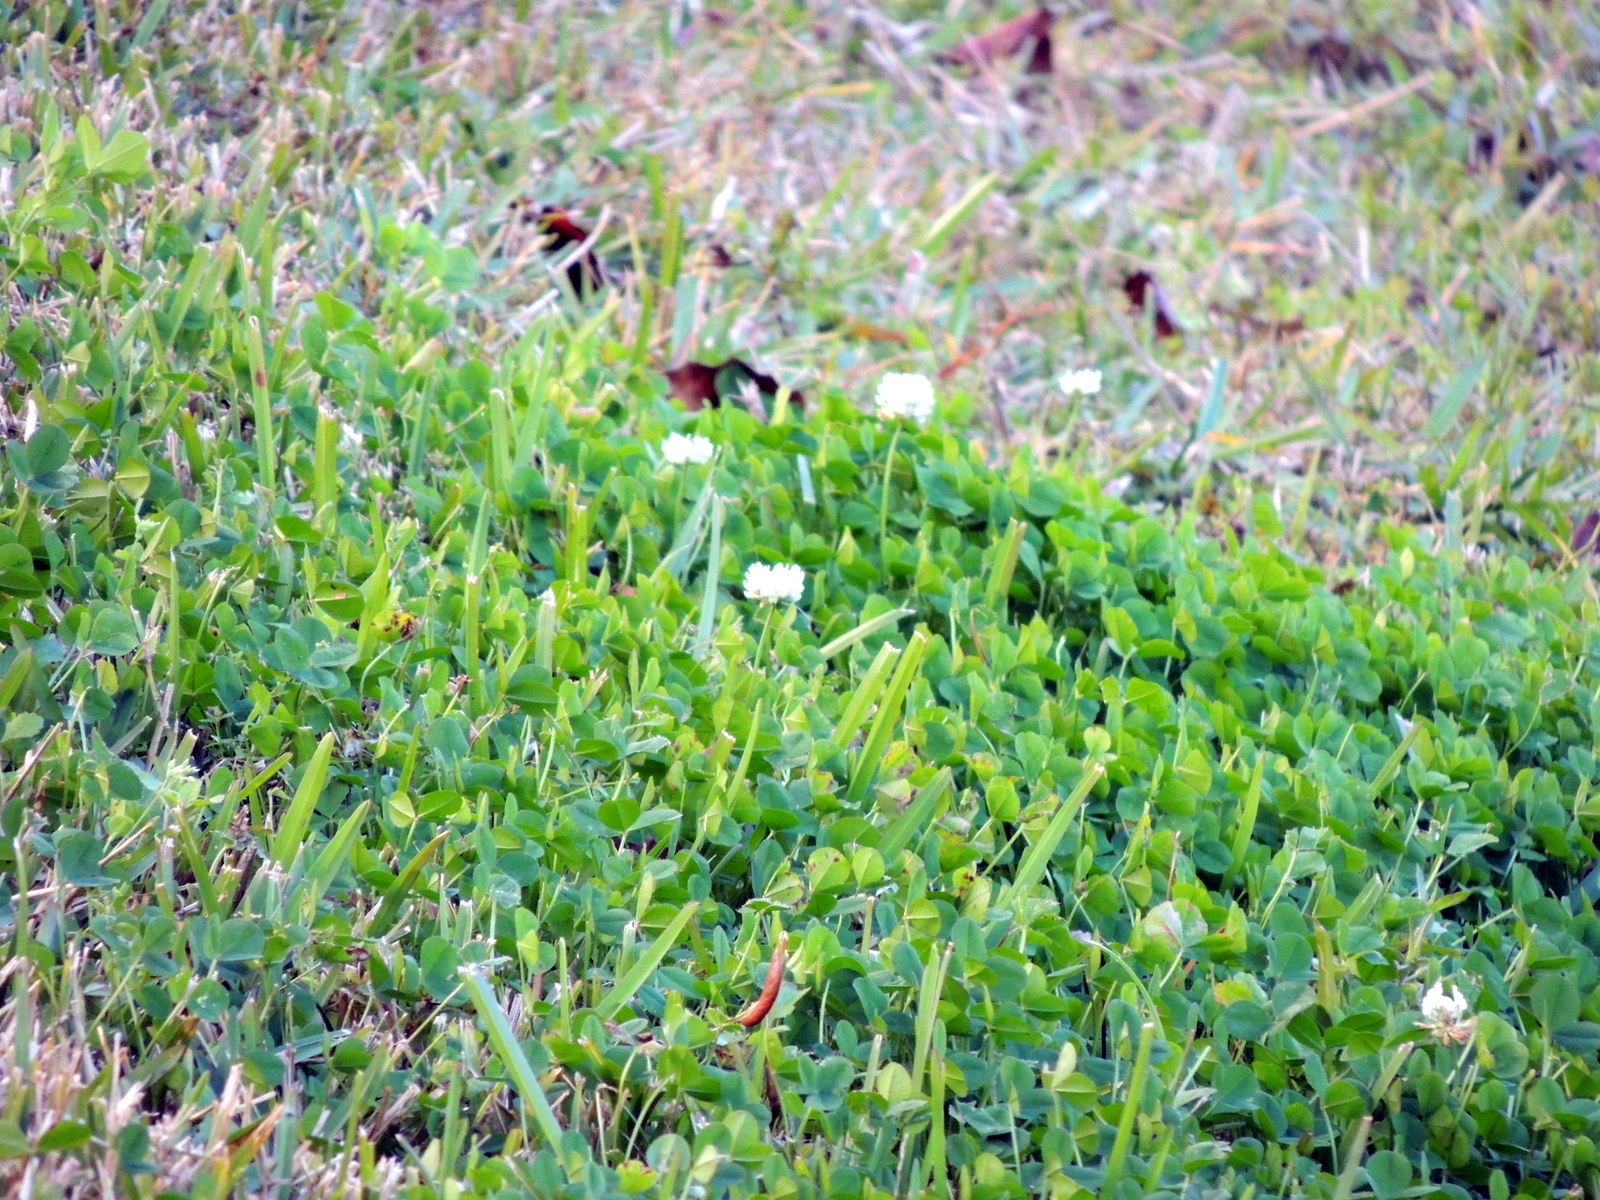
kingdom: Plantae
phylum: Tracheophyta
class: Magnoliopsida
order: Fabales
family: Fabaceae
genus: Trifolium
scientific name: Trifolium repens
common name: White clover
